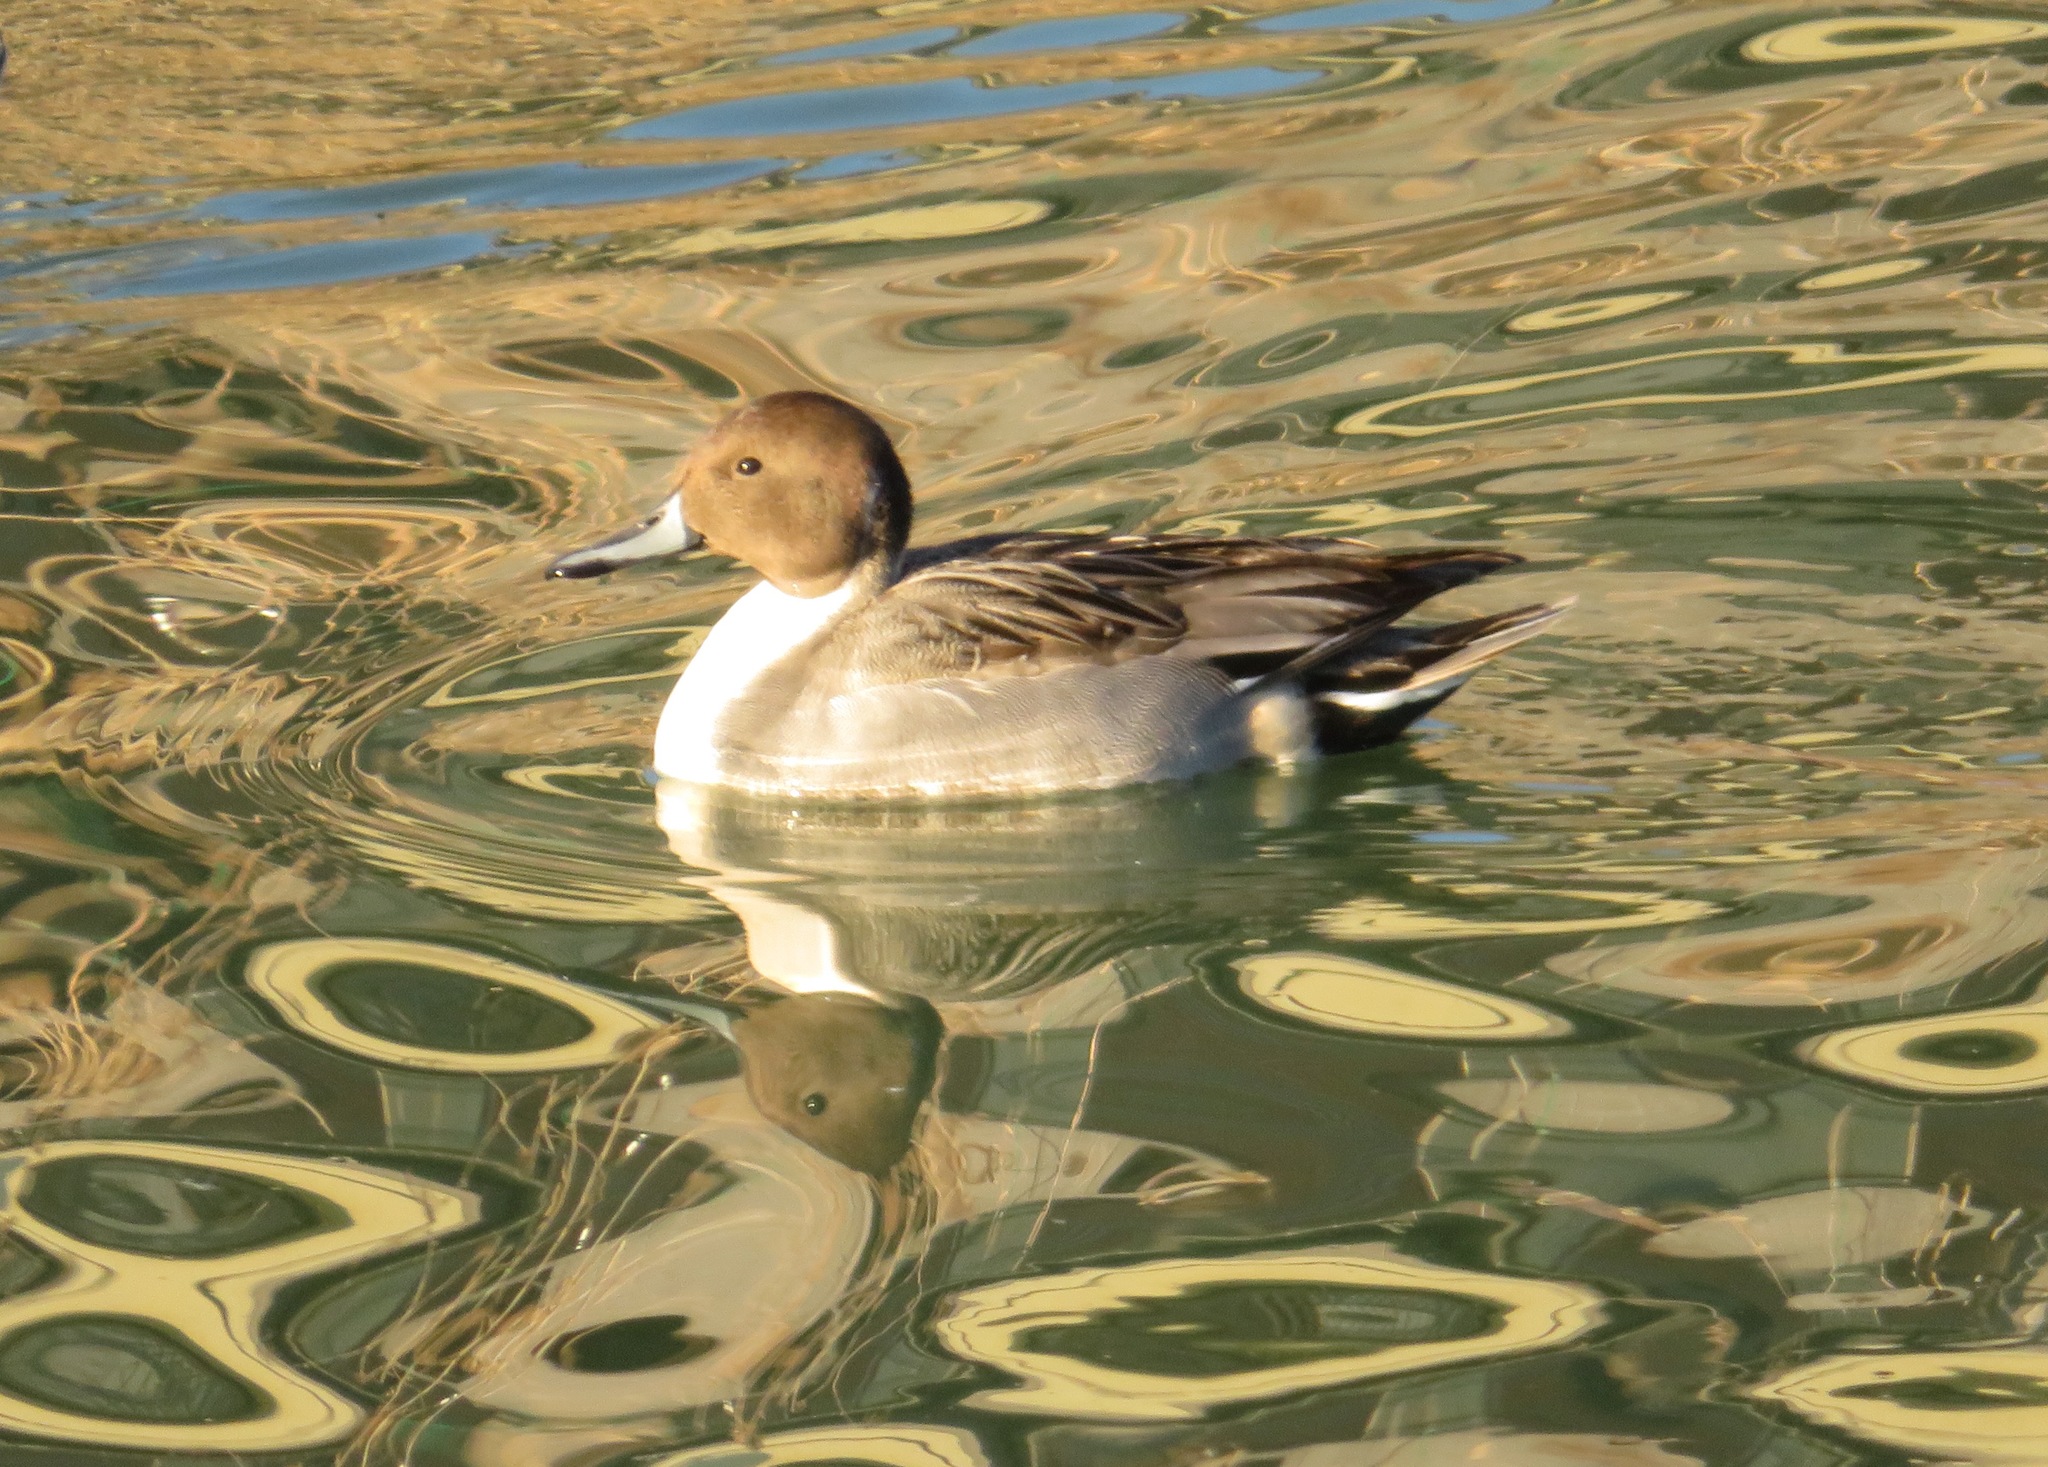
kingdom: Animalia
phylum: Chordata
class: Aves
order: Anseriformes
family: Anatidae
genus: Anas
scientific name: Anas acuta
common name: Northern pintail
